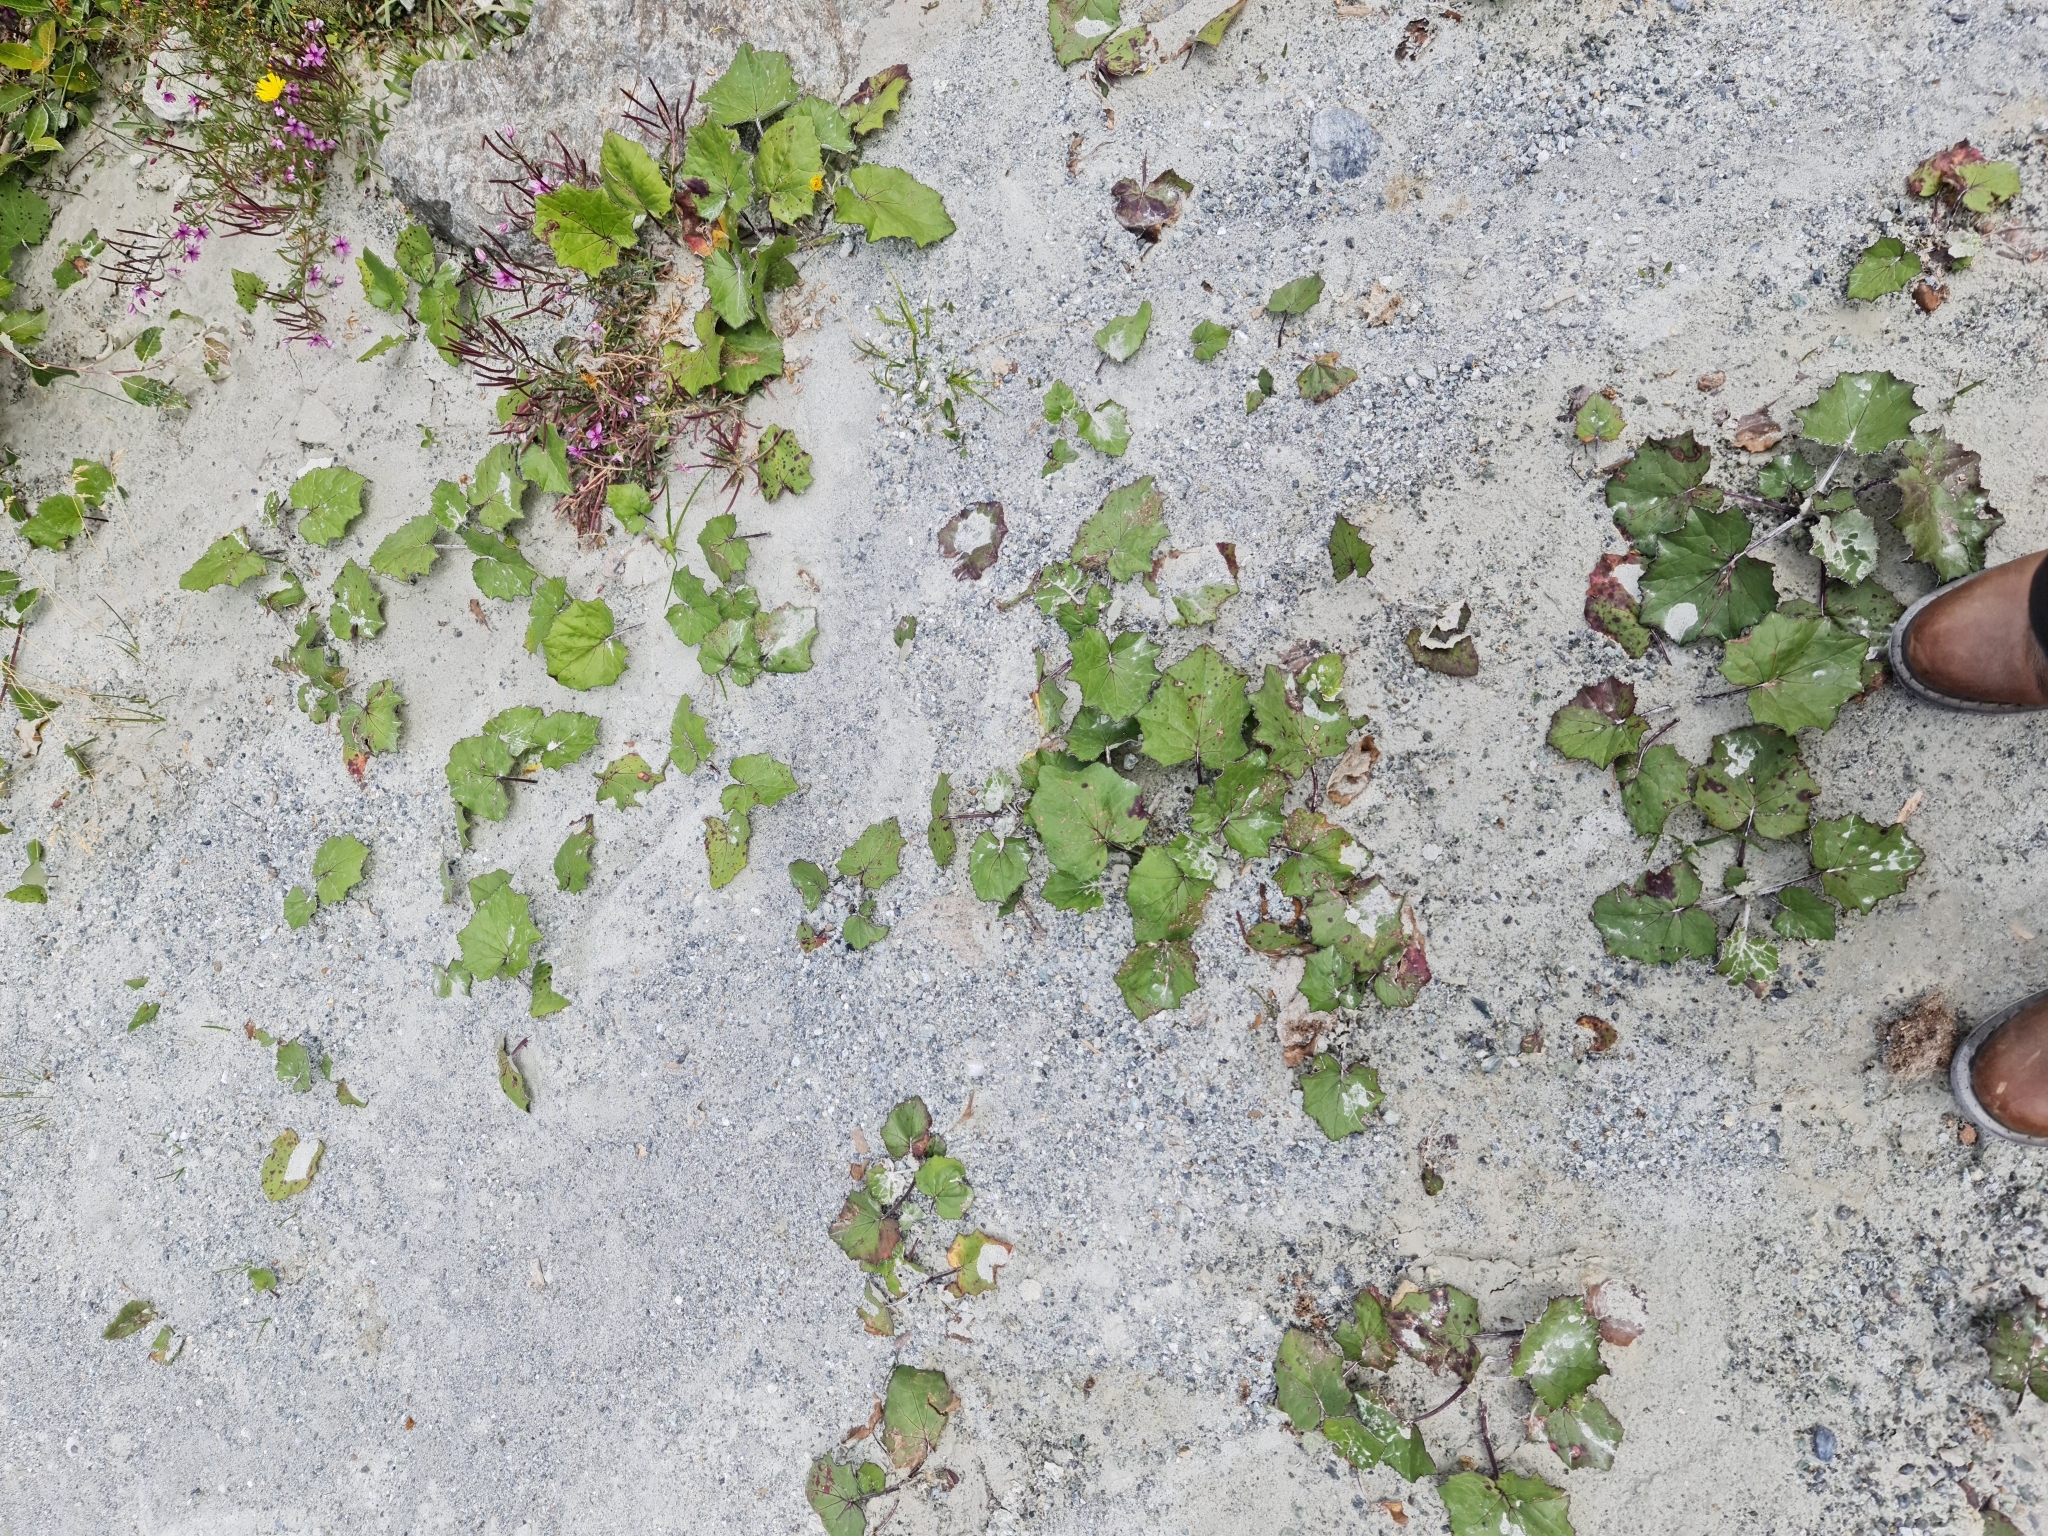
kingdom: Plantae
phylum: Tracheophyta
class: Magnoliopsida
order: Asterales
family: Asteraceae
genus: Tussilago
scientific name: Tussilago farfara
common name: Coltsfoot
